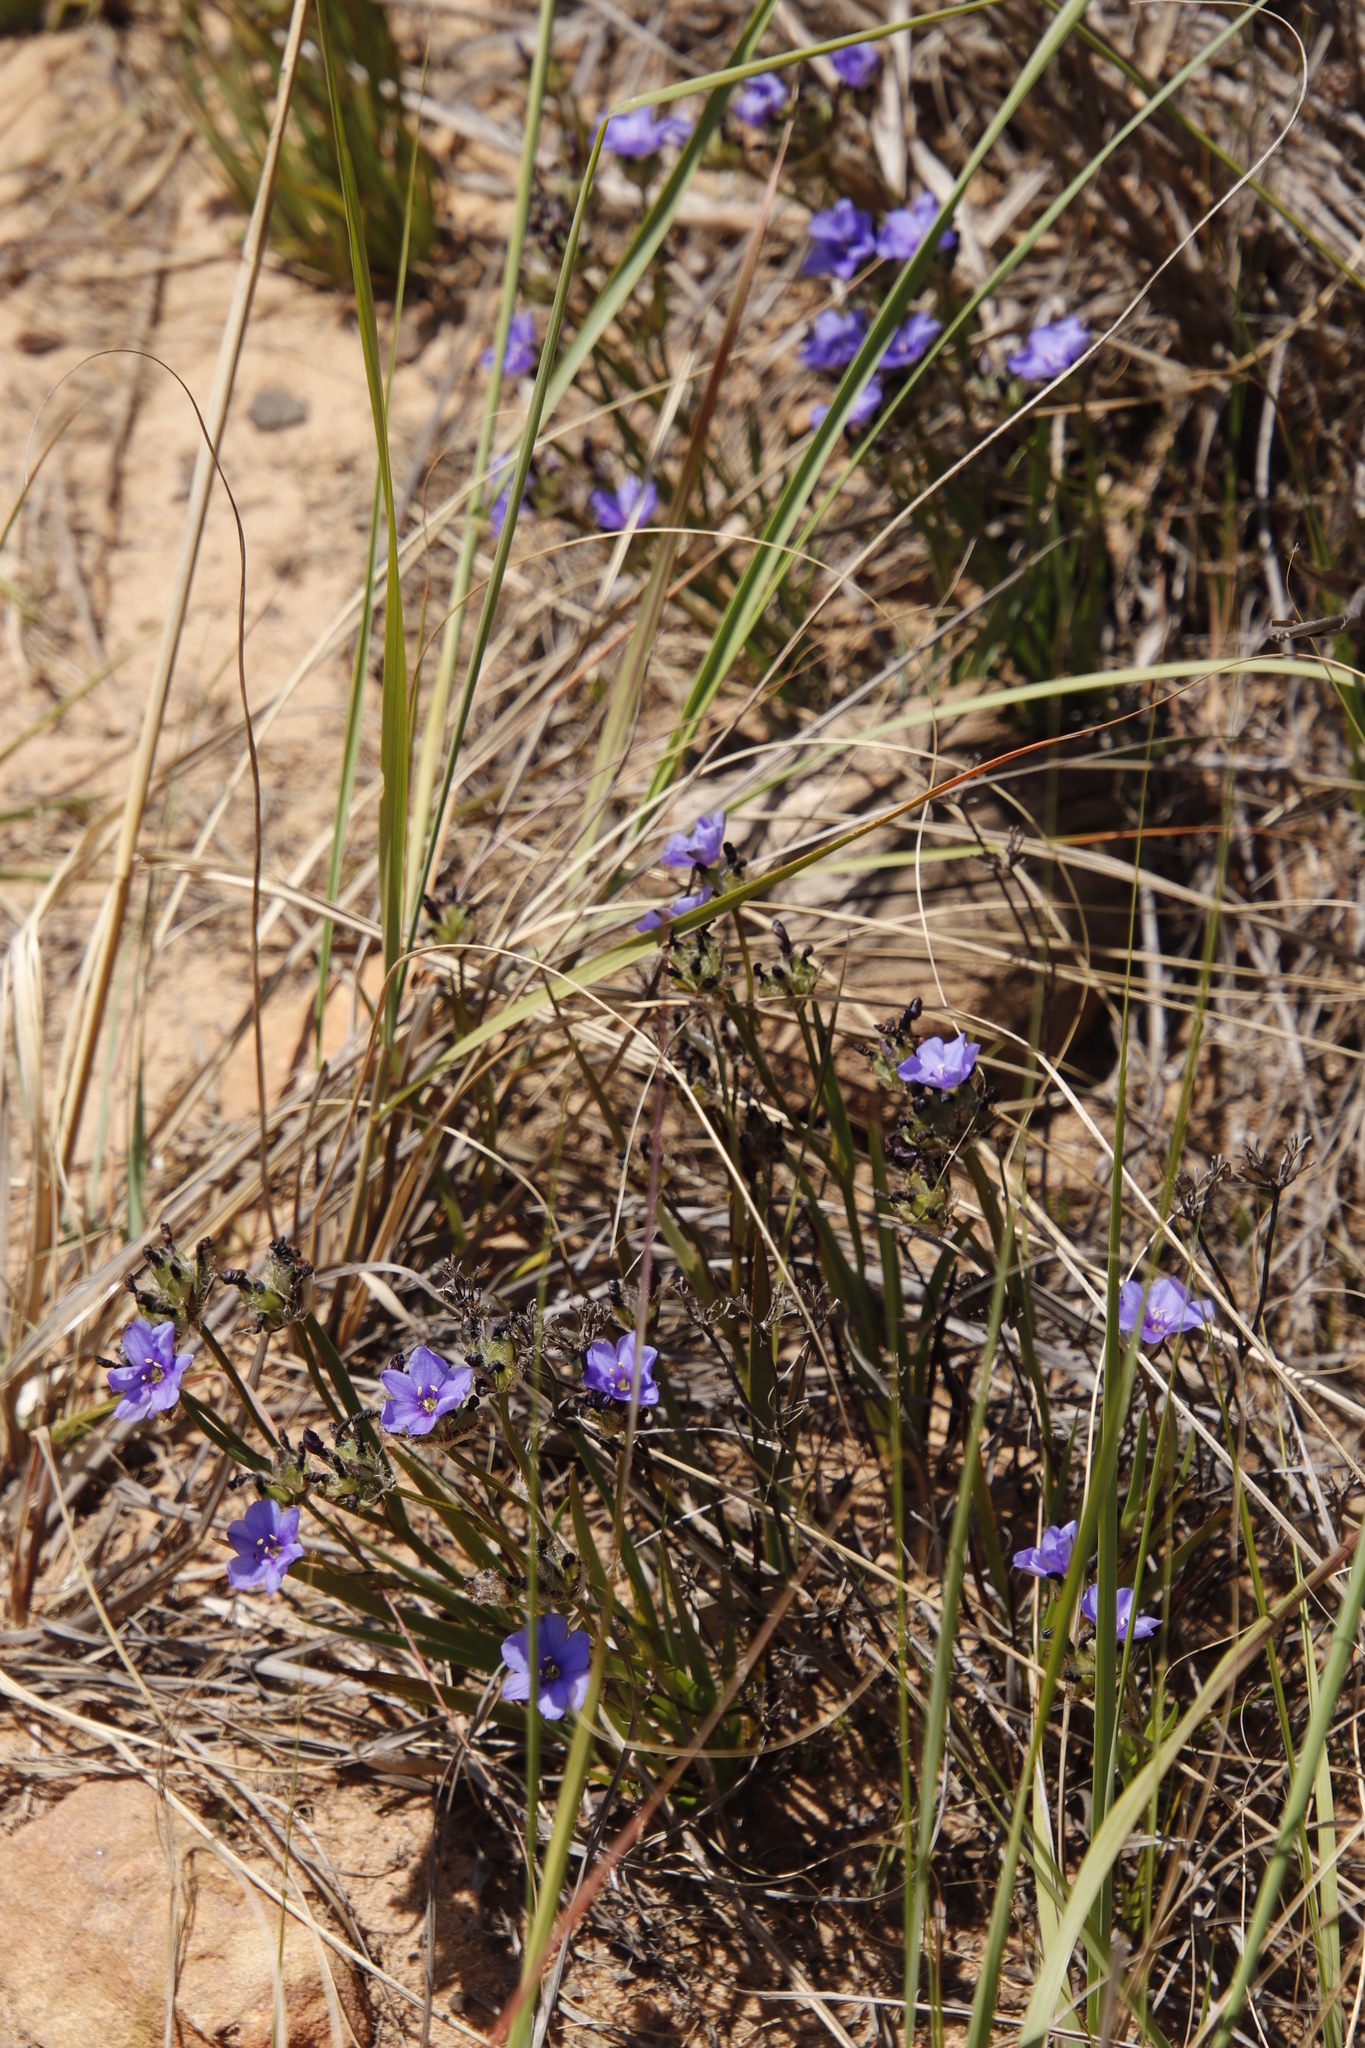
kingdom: Plantae
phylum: Tracheophyta
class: Liliopsida
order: Asparagales
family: Iridaceae
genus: Aristea
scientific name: Aristea africana
